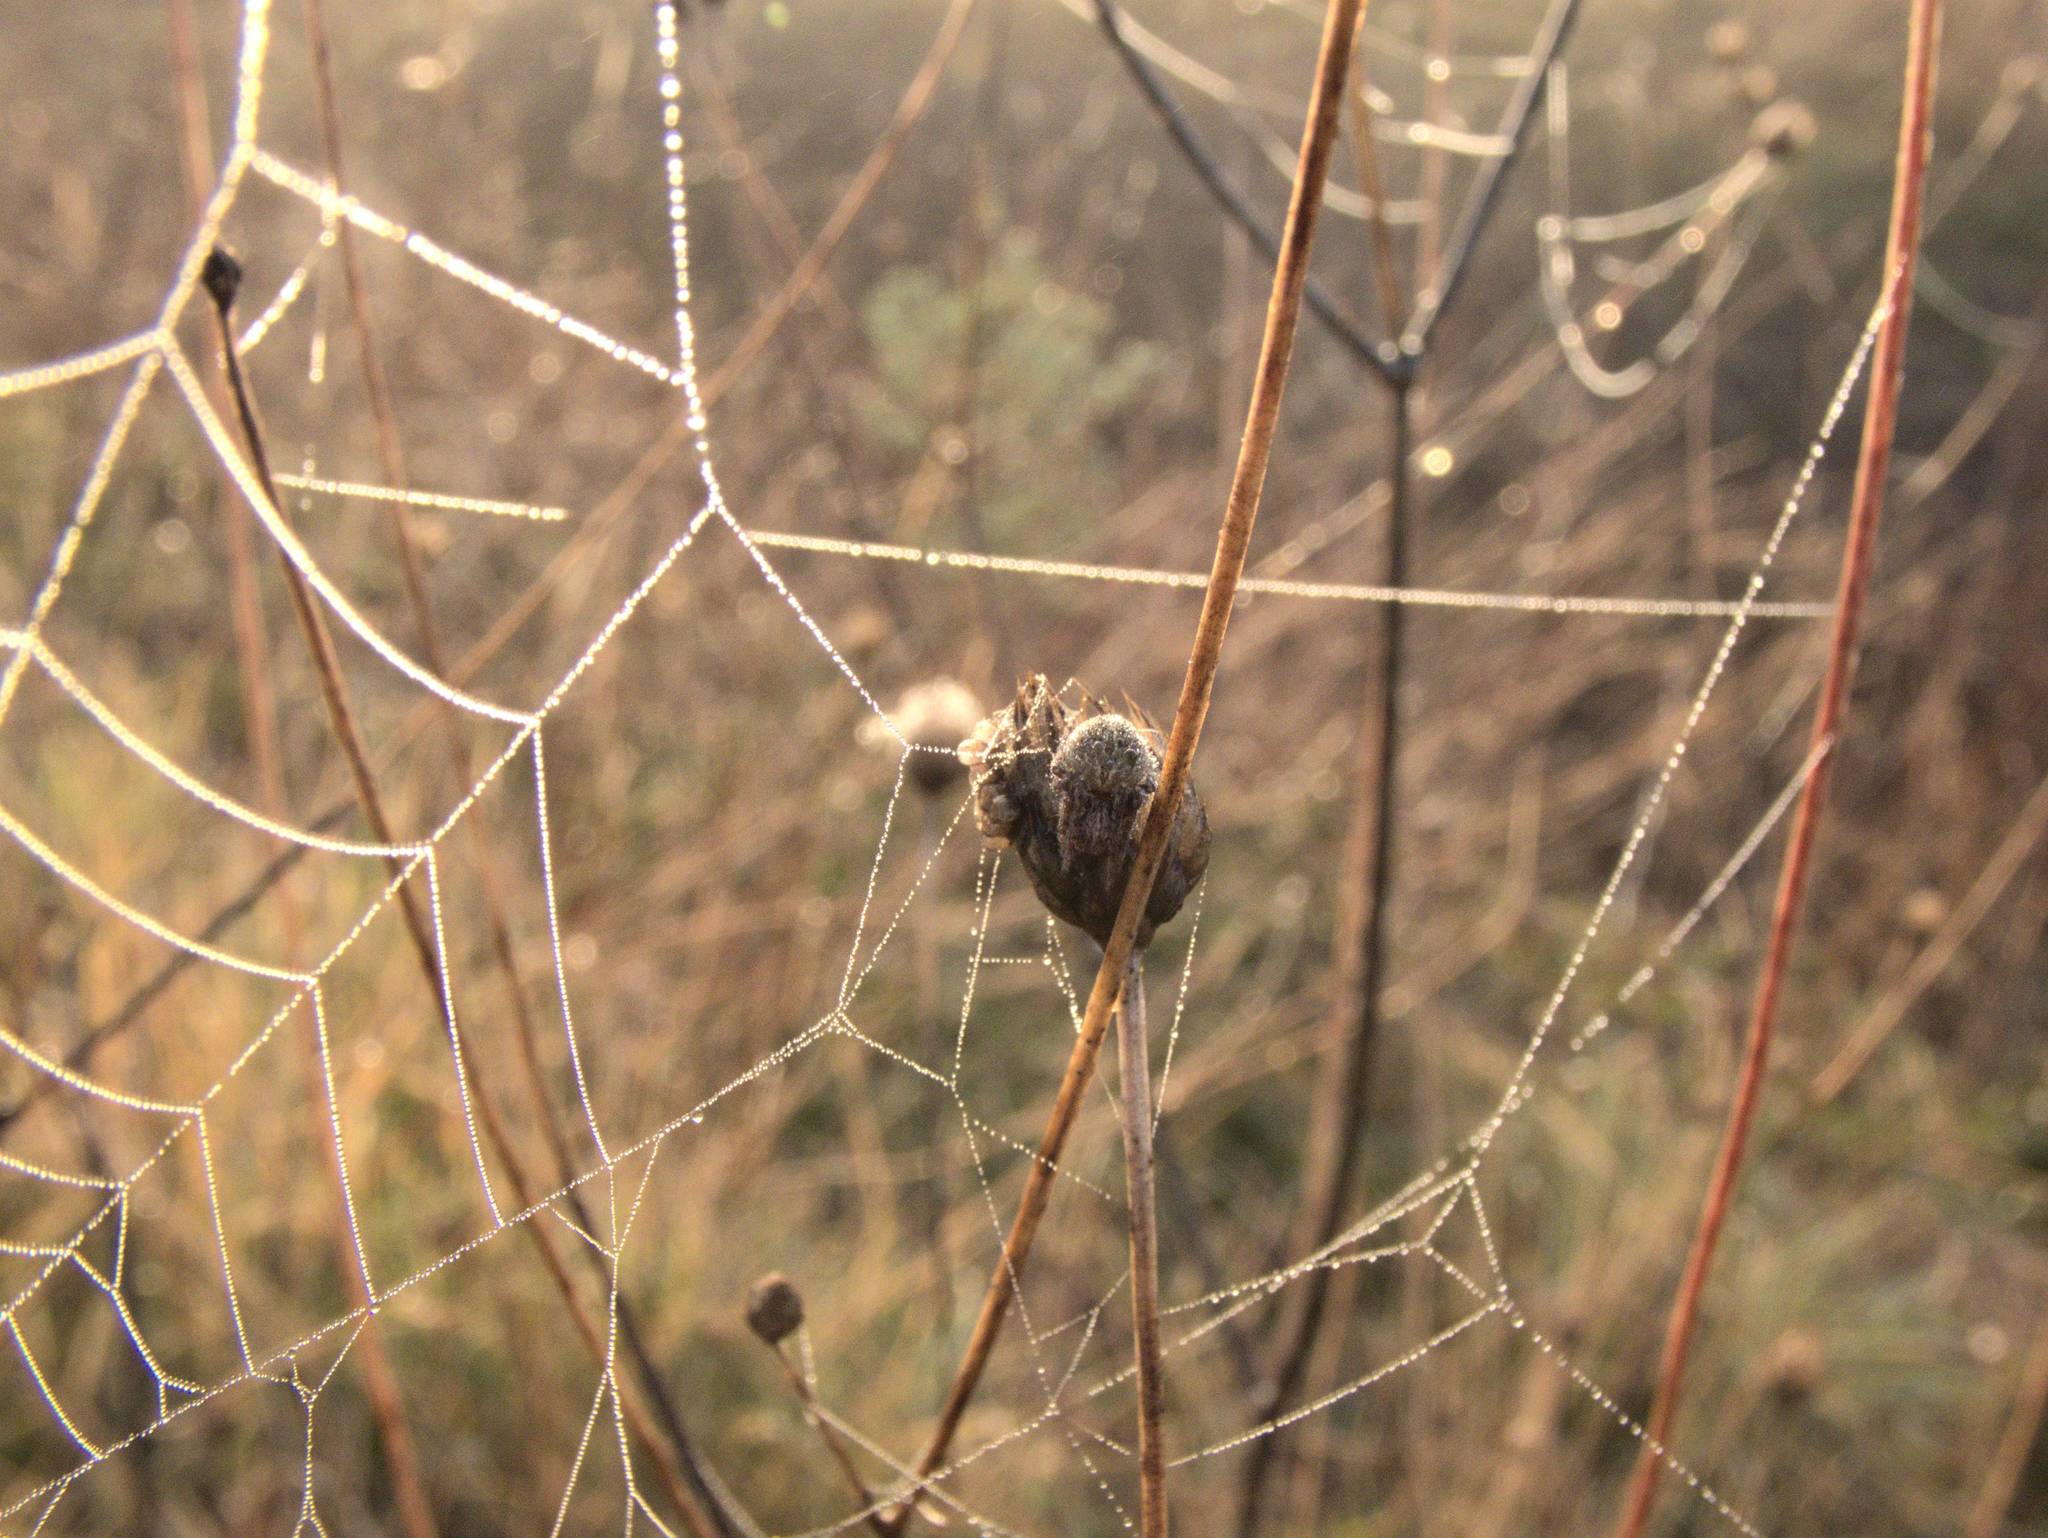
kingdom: Animalia
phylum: Arthropoda
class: Arachnida
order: Araneae
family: Araneidae
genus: Agalenatea
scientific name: Agalenatea redii
